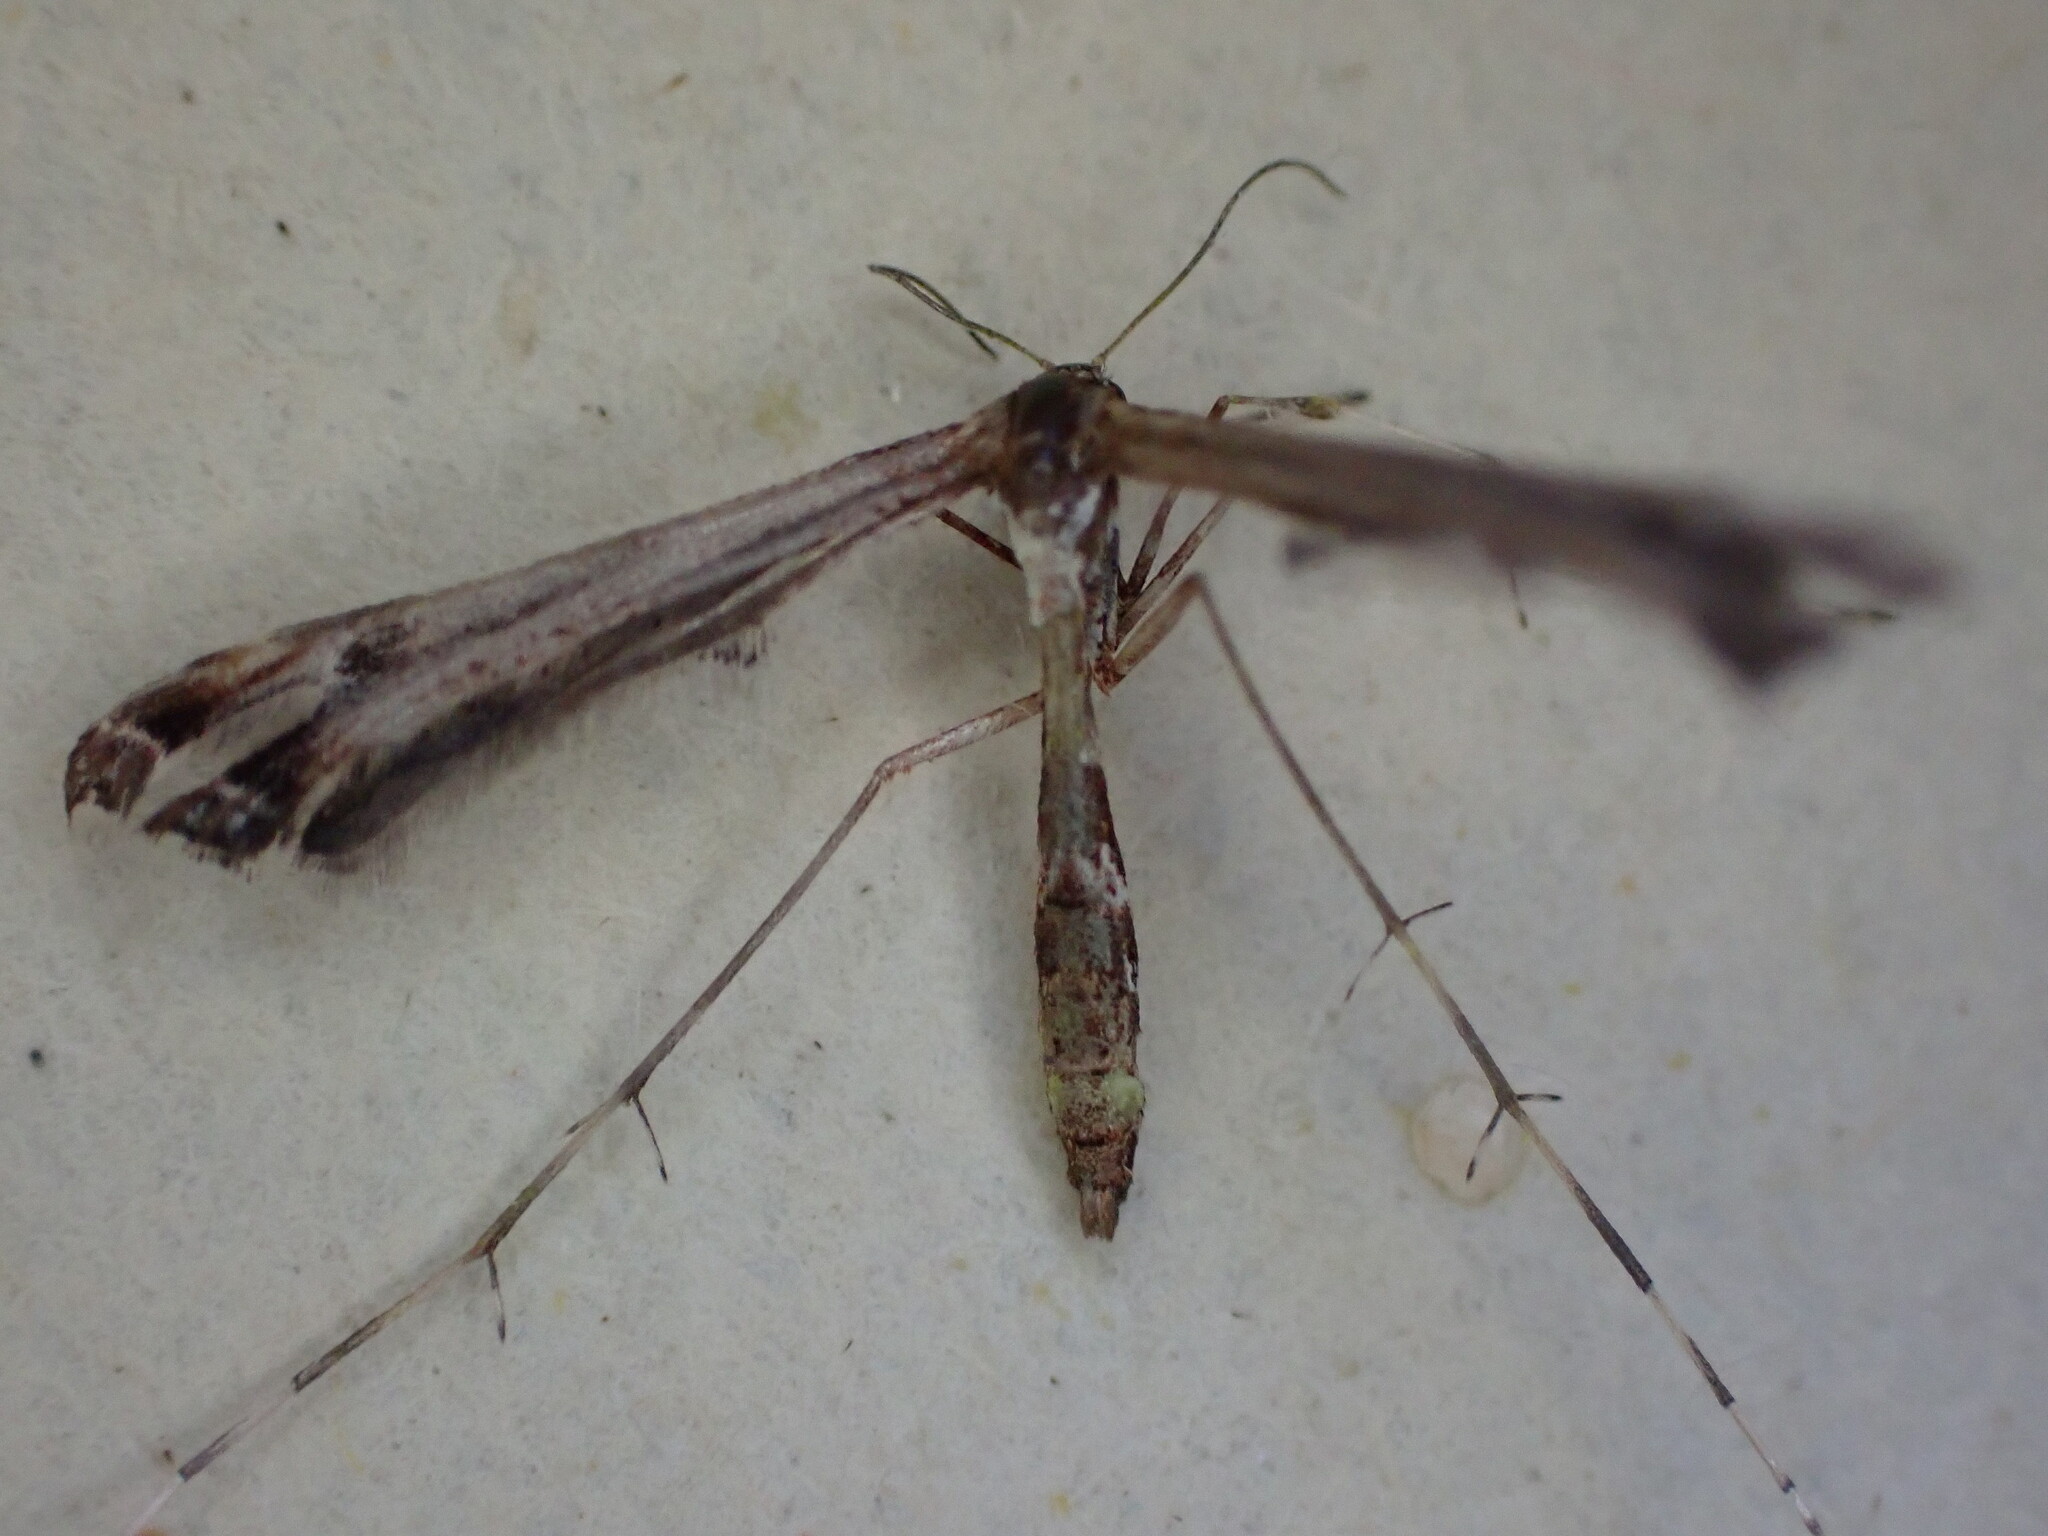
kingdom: Animalia
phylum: Arthropoda
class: Insecta
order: Lepidoptera
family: Pterophoridae
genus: Amblyptilia
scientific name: Amblyptilia acanthadactyla
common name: Beautiful plume
